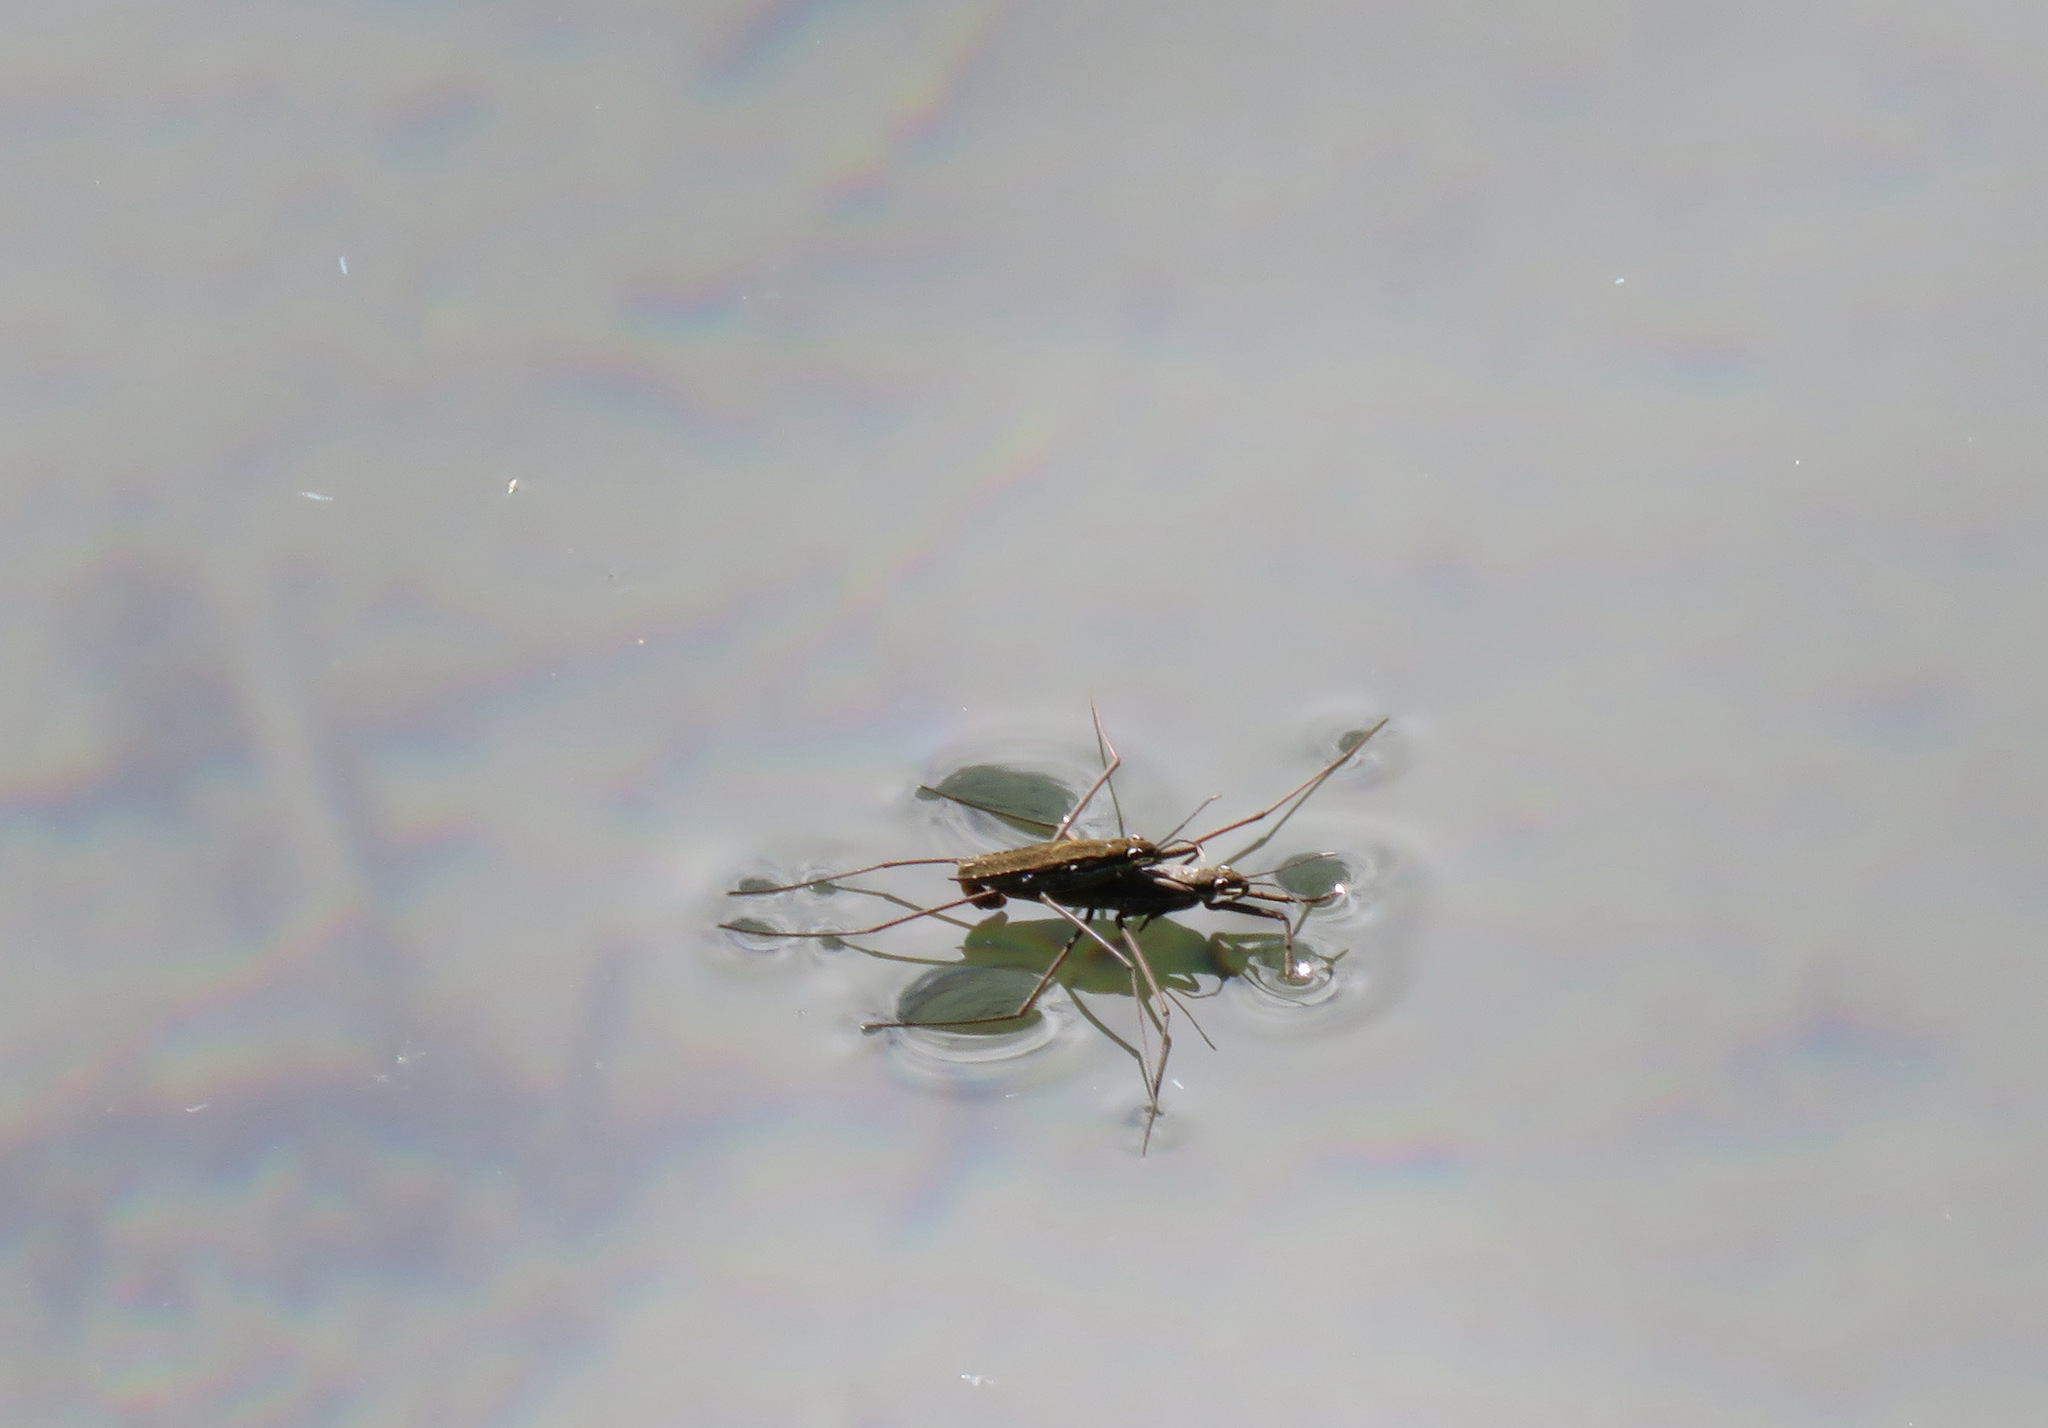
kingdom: Animalia
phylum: Arthropoda
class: Insecta
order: Hemiptera
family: Gerridae
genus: Aquarius
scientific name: Aquarius remigis
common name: Common water strider
